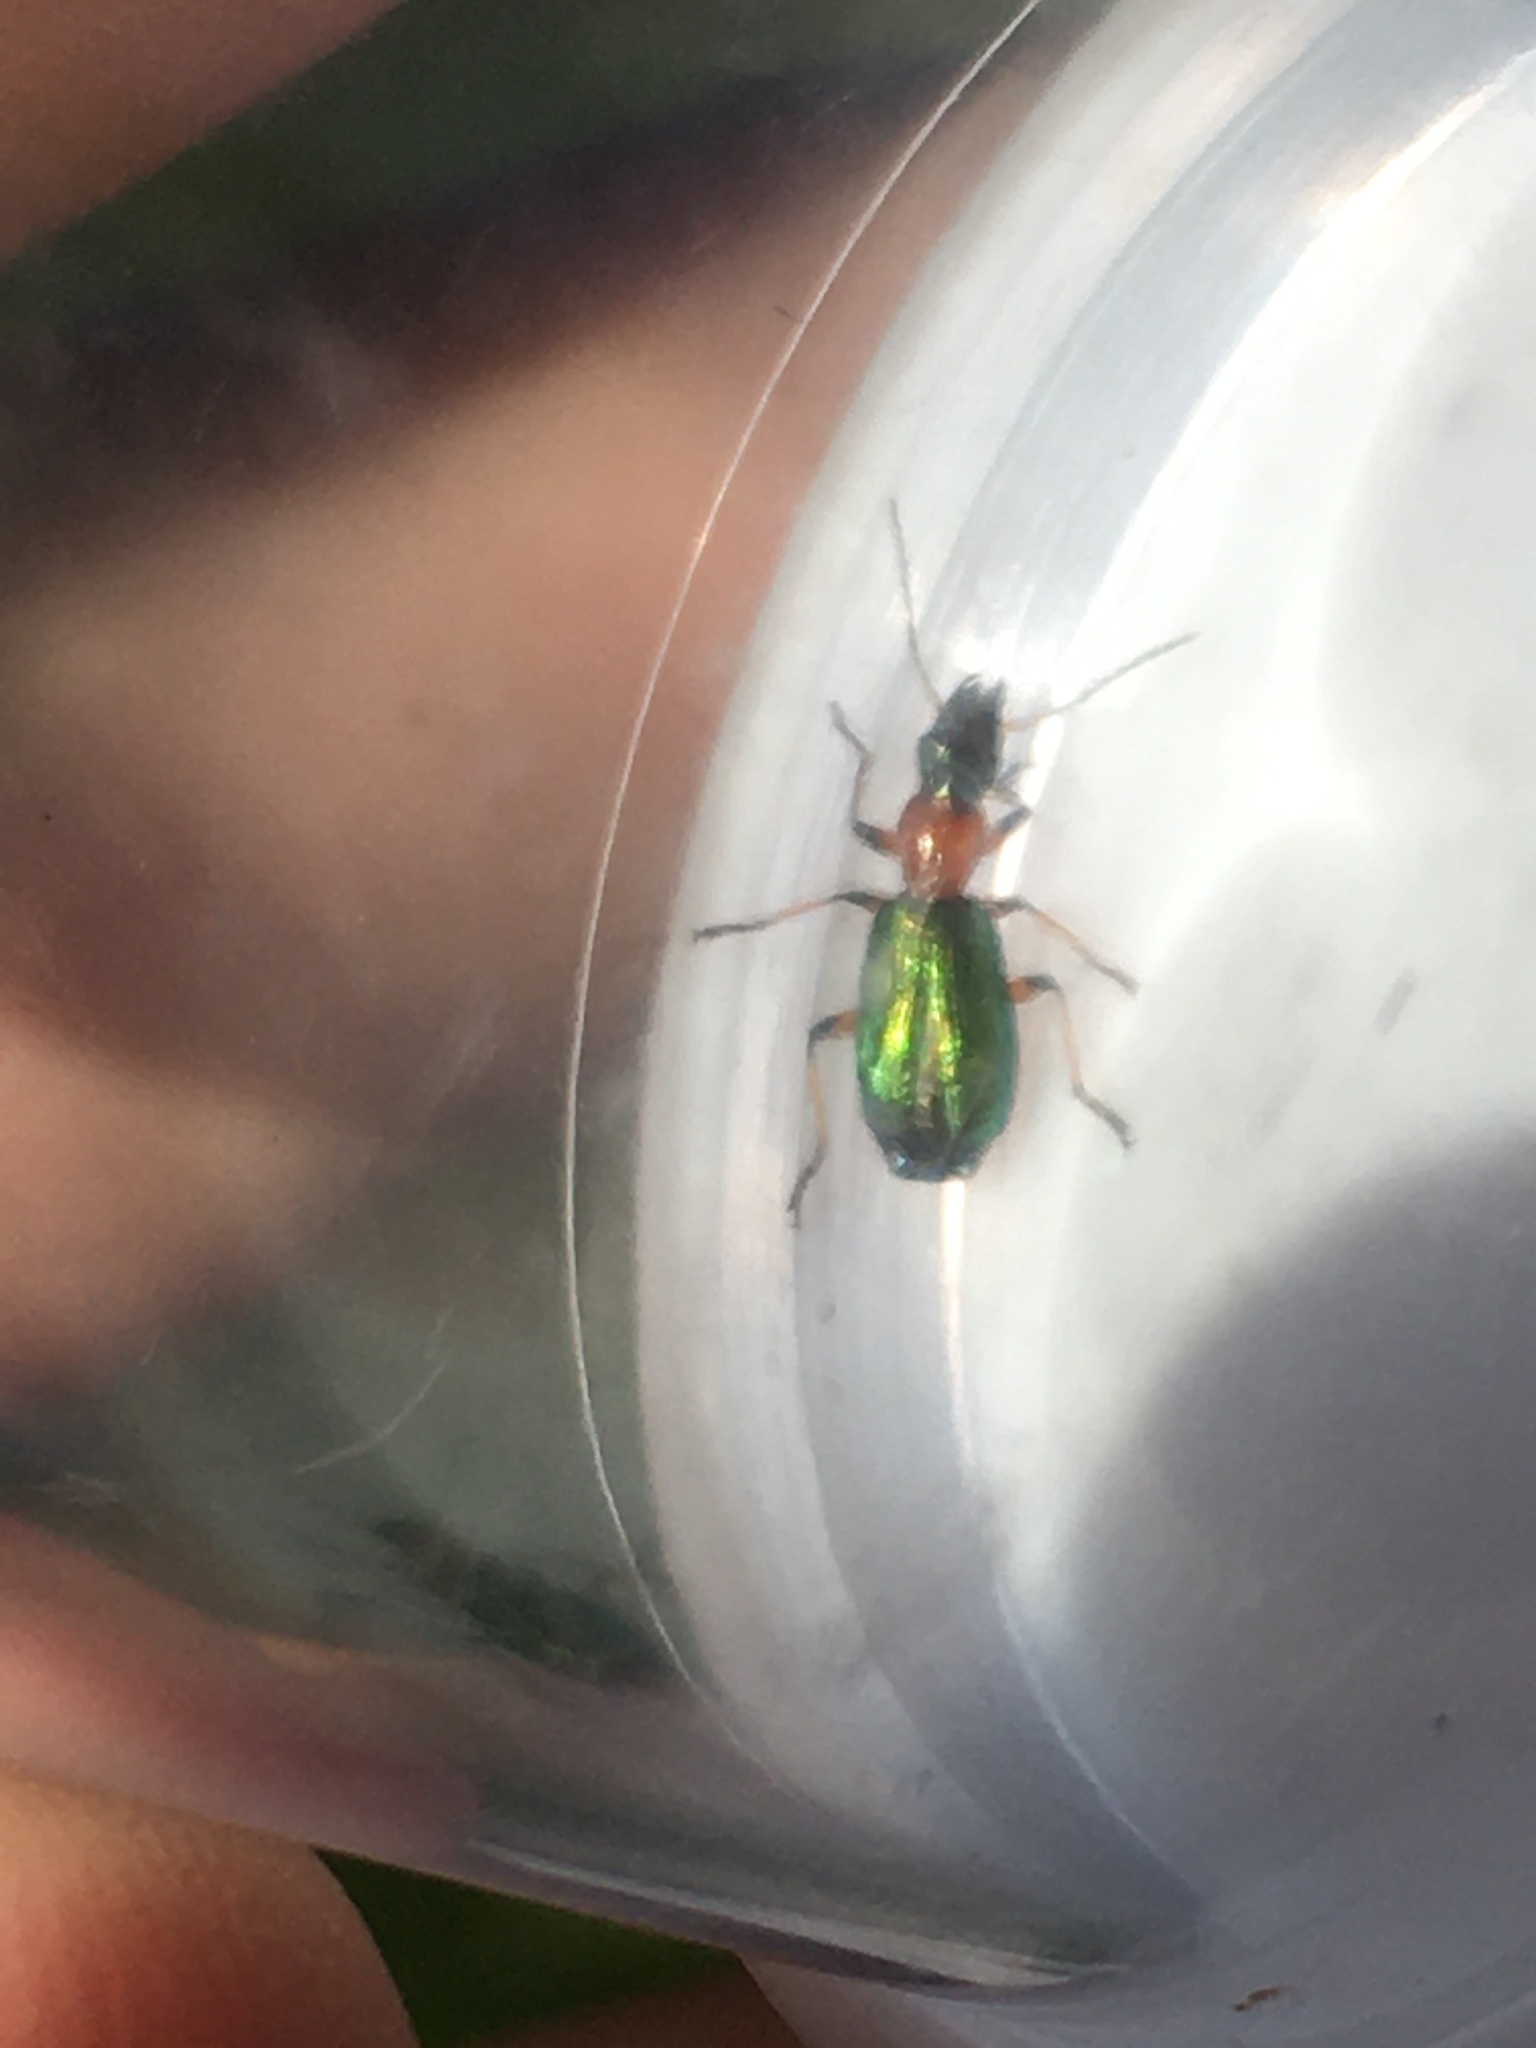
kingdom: Animalia
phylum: Arthropoda
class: Insecta
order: Coleoptera
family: Carabidae
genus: Calleida
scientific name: Calleida punctata
